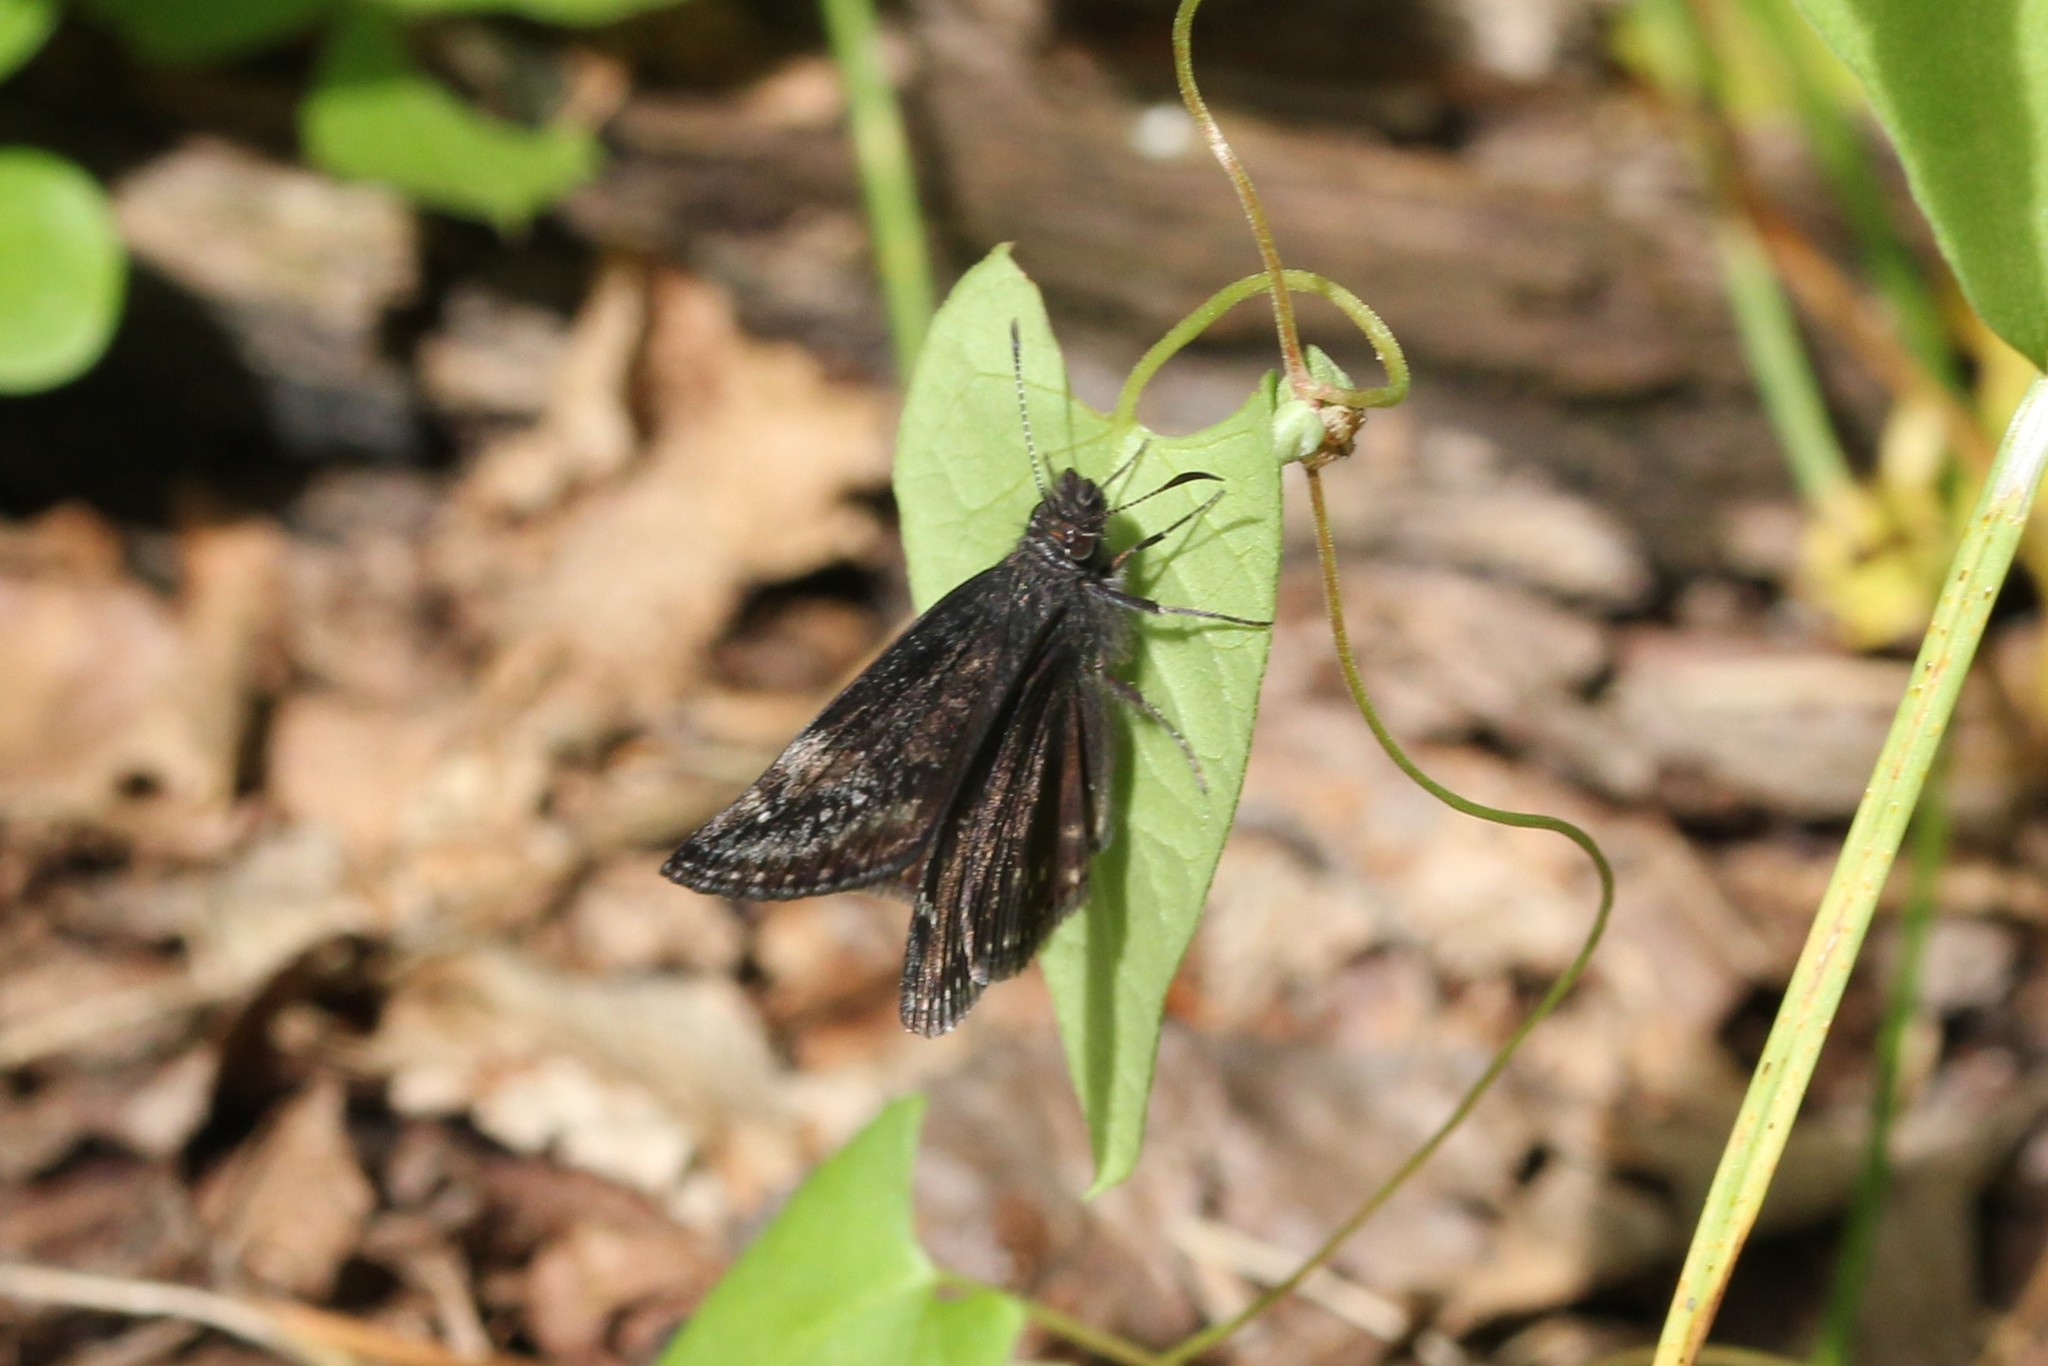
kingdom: Animalia
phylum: Arthropoda
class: Insecta
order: Lepidoptera
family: Hesperiidae
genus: Erynnis
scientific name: Erynnis baptisiae
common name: Wild indigo duskywing
